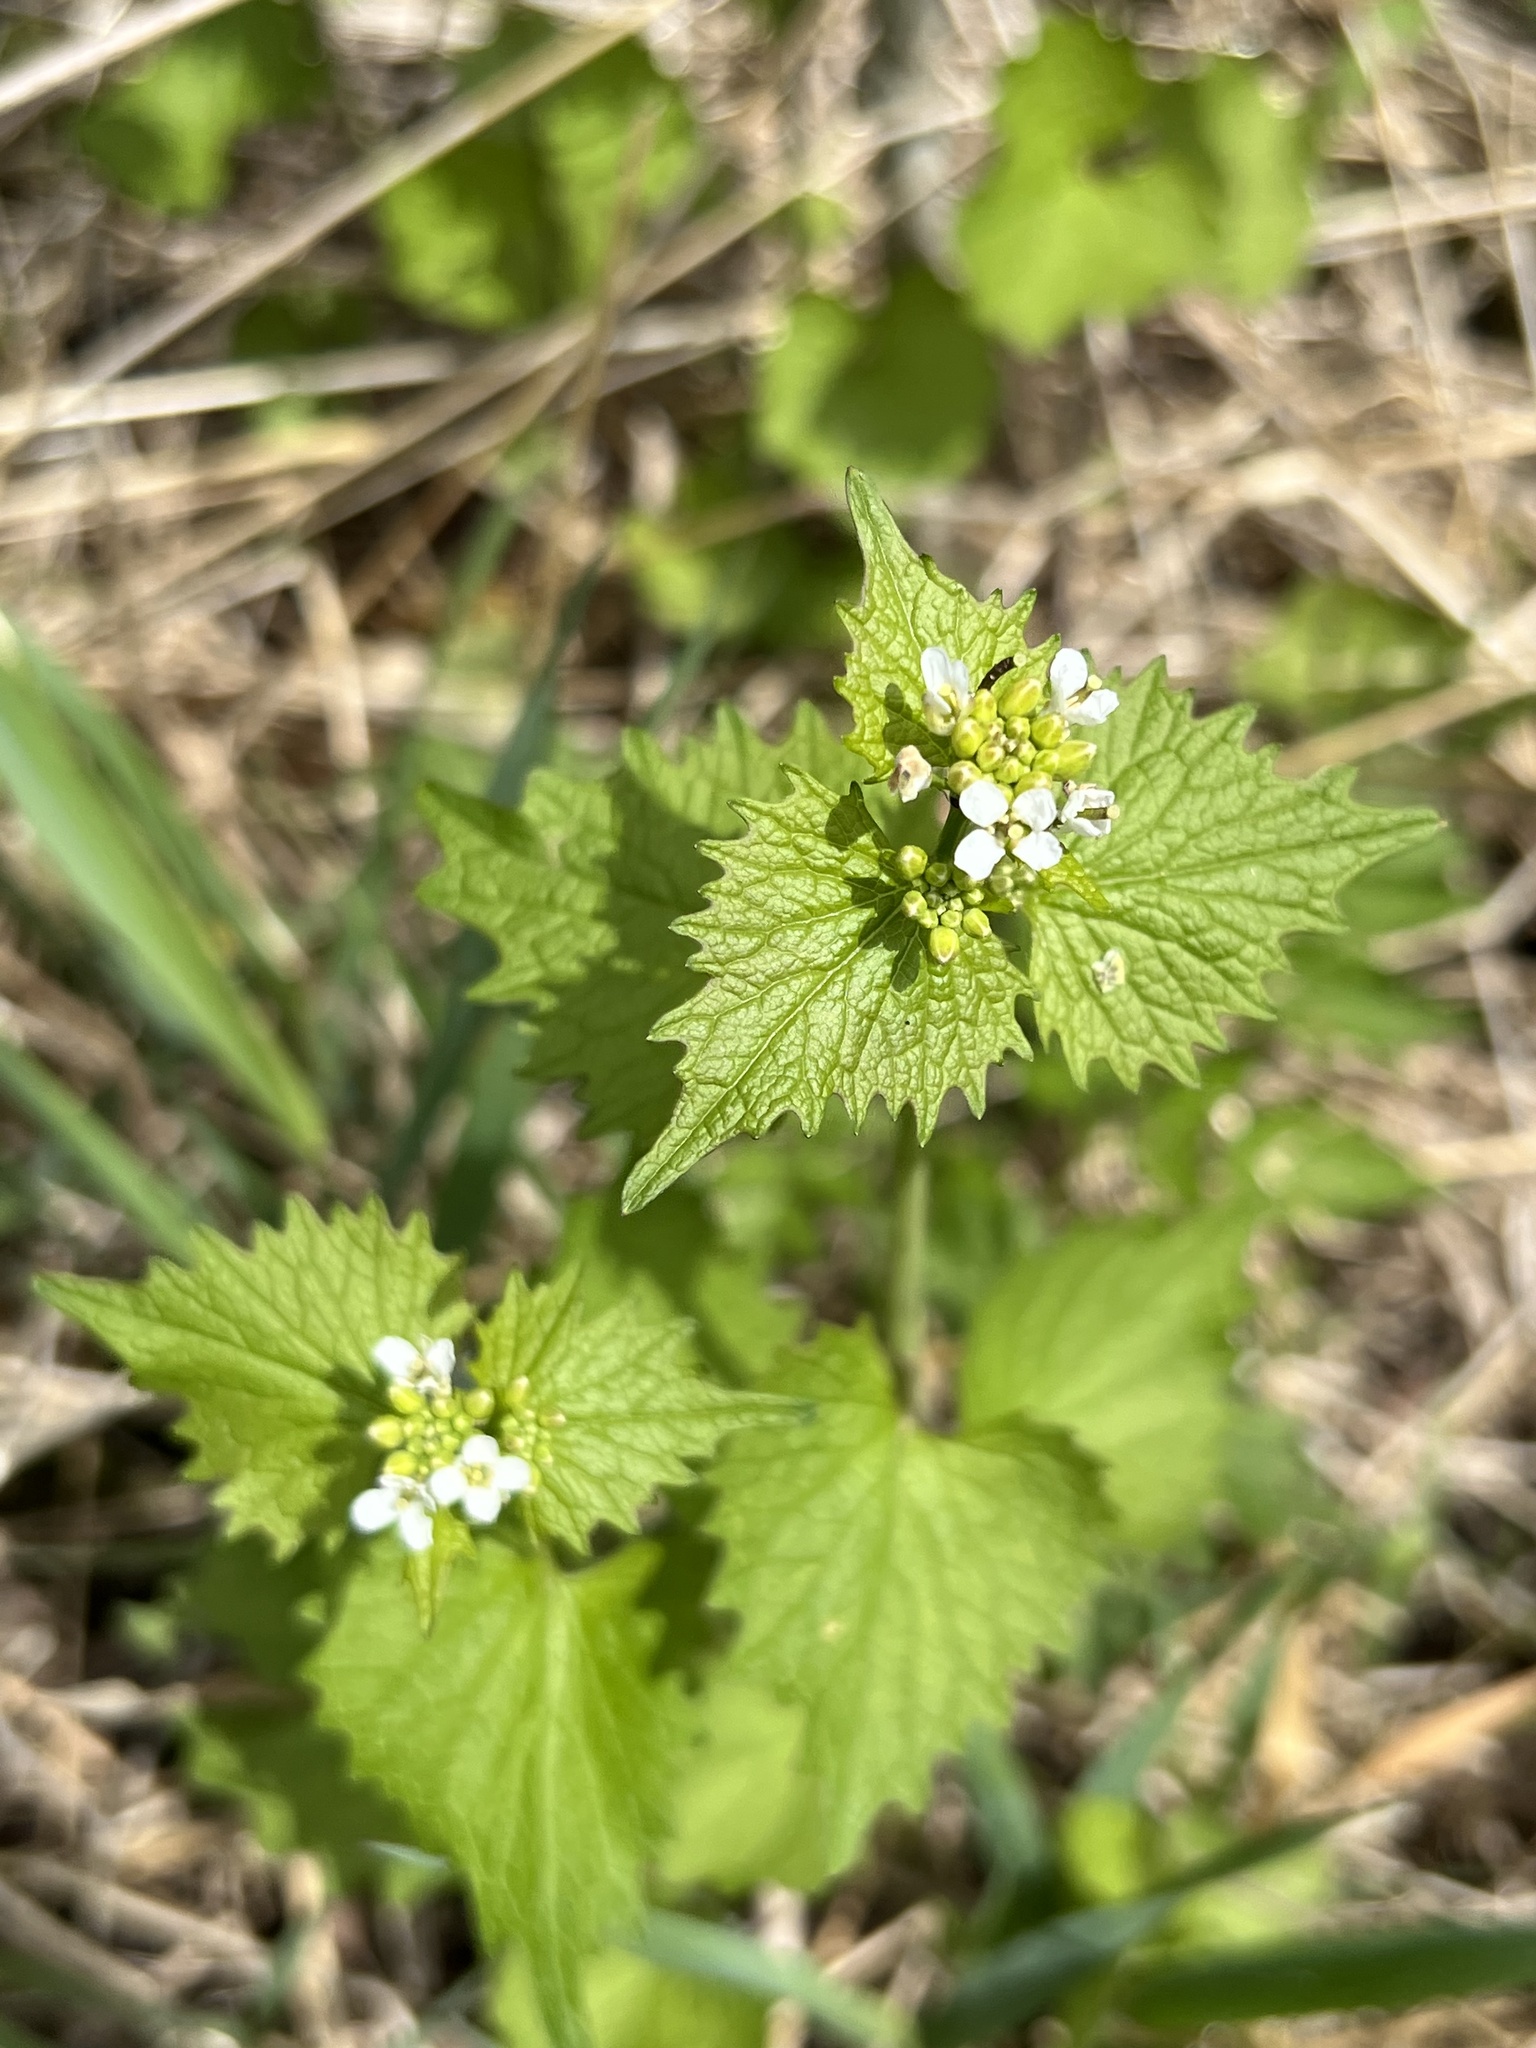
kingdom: Plantae
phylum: Tracheophyta
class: Magnoliopsida
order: Brassicales
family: Brassicaceae
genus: Alliaria
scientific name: Alliaria petiolata
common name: Garlic mustard
